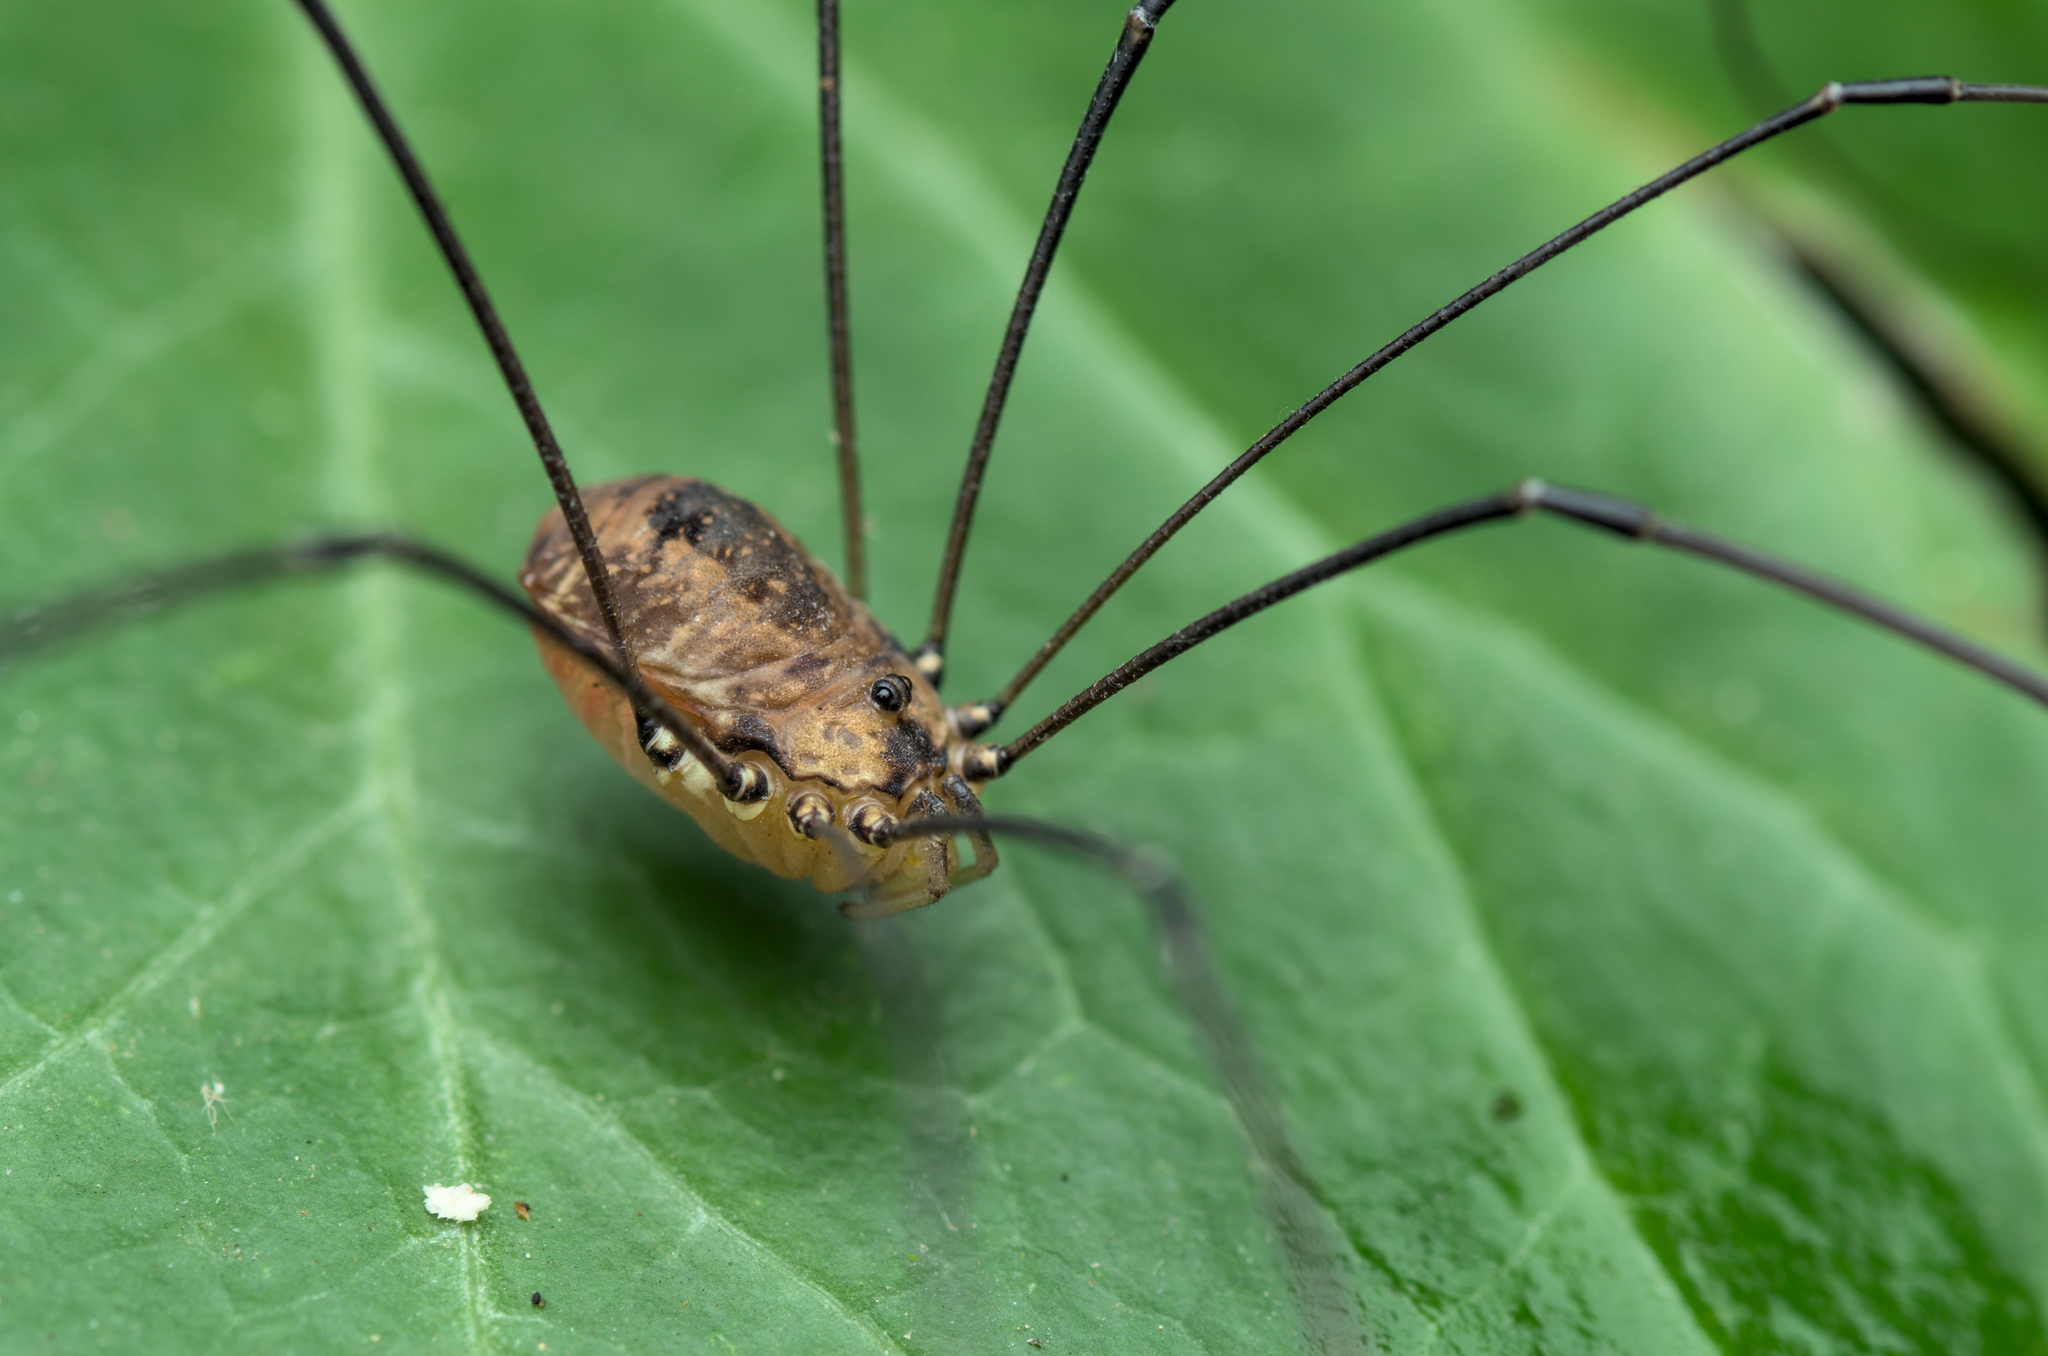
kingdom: Animalia
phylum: Arthropoda
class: Arachnida
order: Opiliones
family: Sclerosomatidae
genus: Leiobunum
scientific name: Leiobunum rotundum
